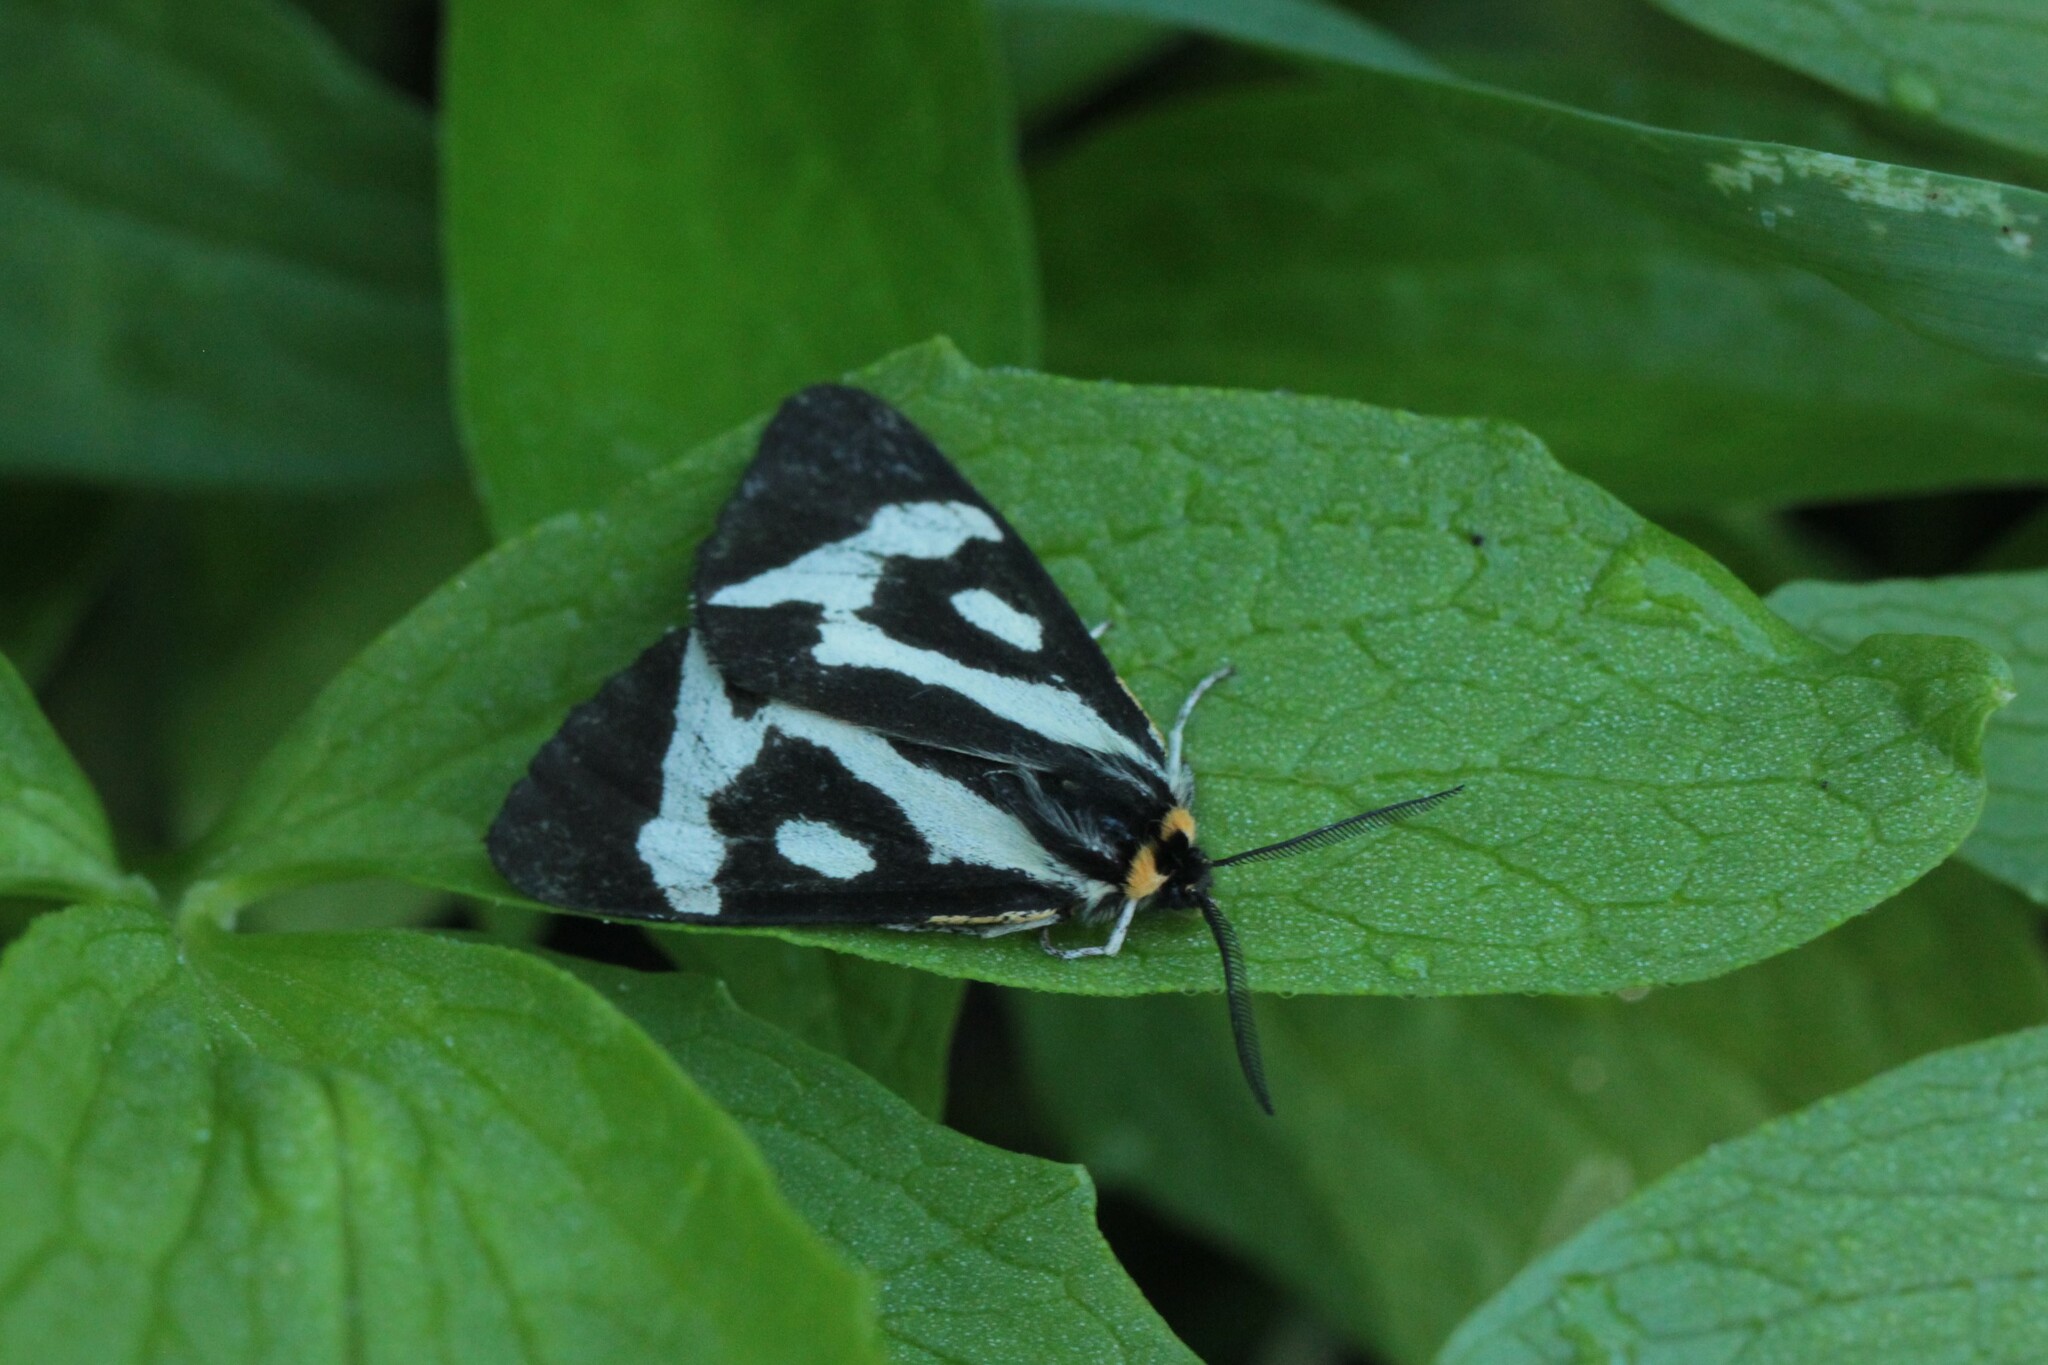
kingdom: Animalia
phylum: Arthropoda
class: Insecta
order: Lepidoptera
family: Erebidae
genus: Parasemia
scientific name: Parasemia plantaginis
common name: Wood tiger
